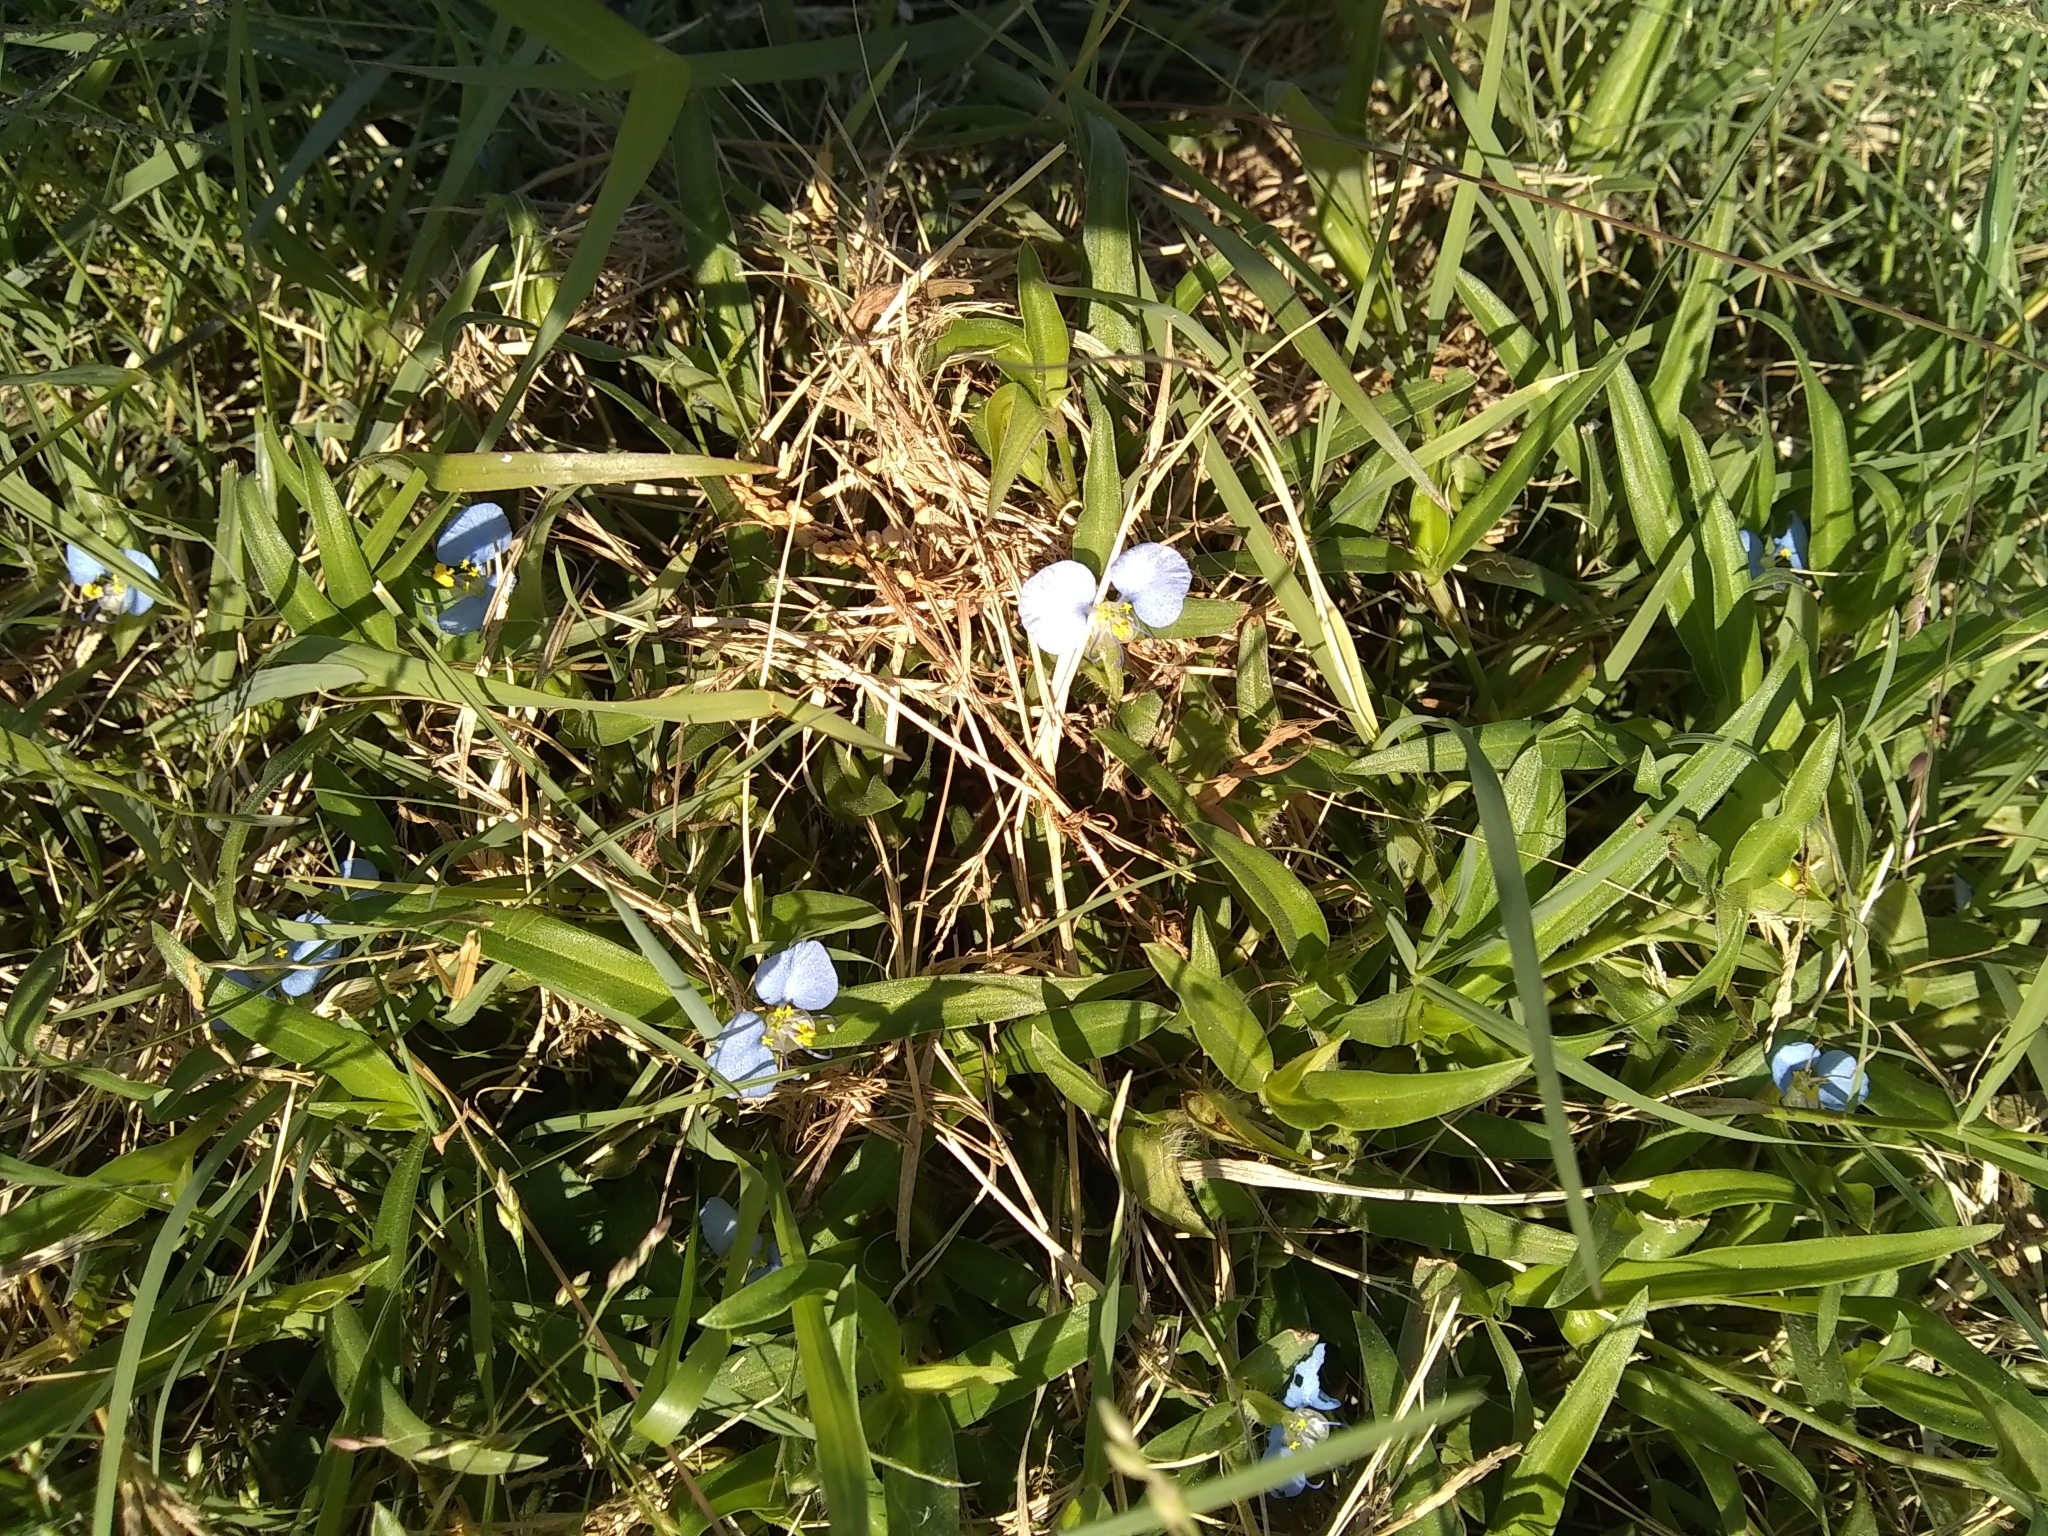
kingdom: Plantae
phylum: Tracheophyta
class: Liliopsida
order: Commelinales
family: Commelinaceae
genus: Commelina
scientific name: Commelina erecta
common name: Blousel blommetjie
